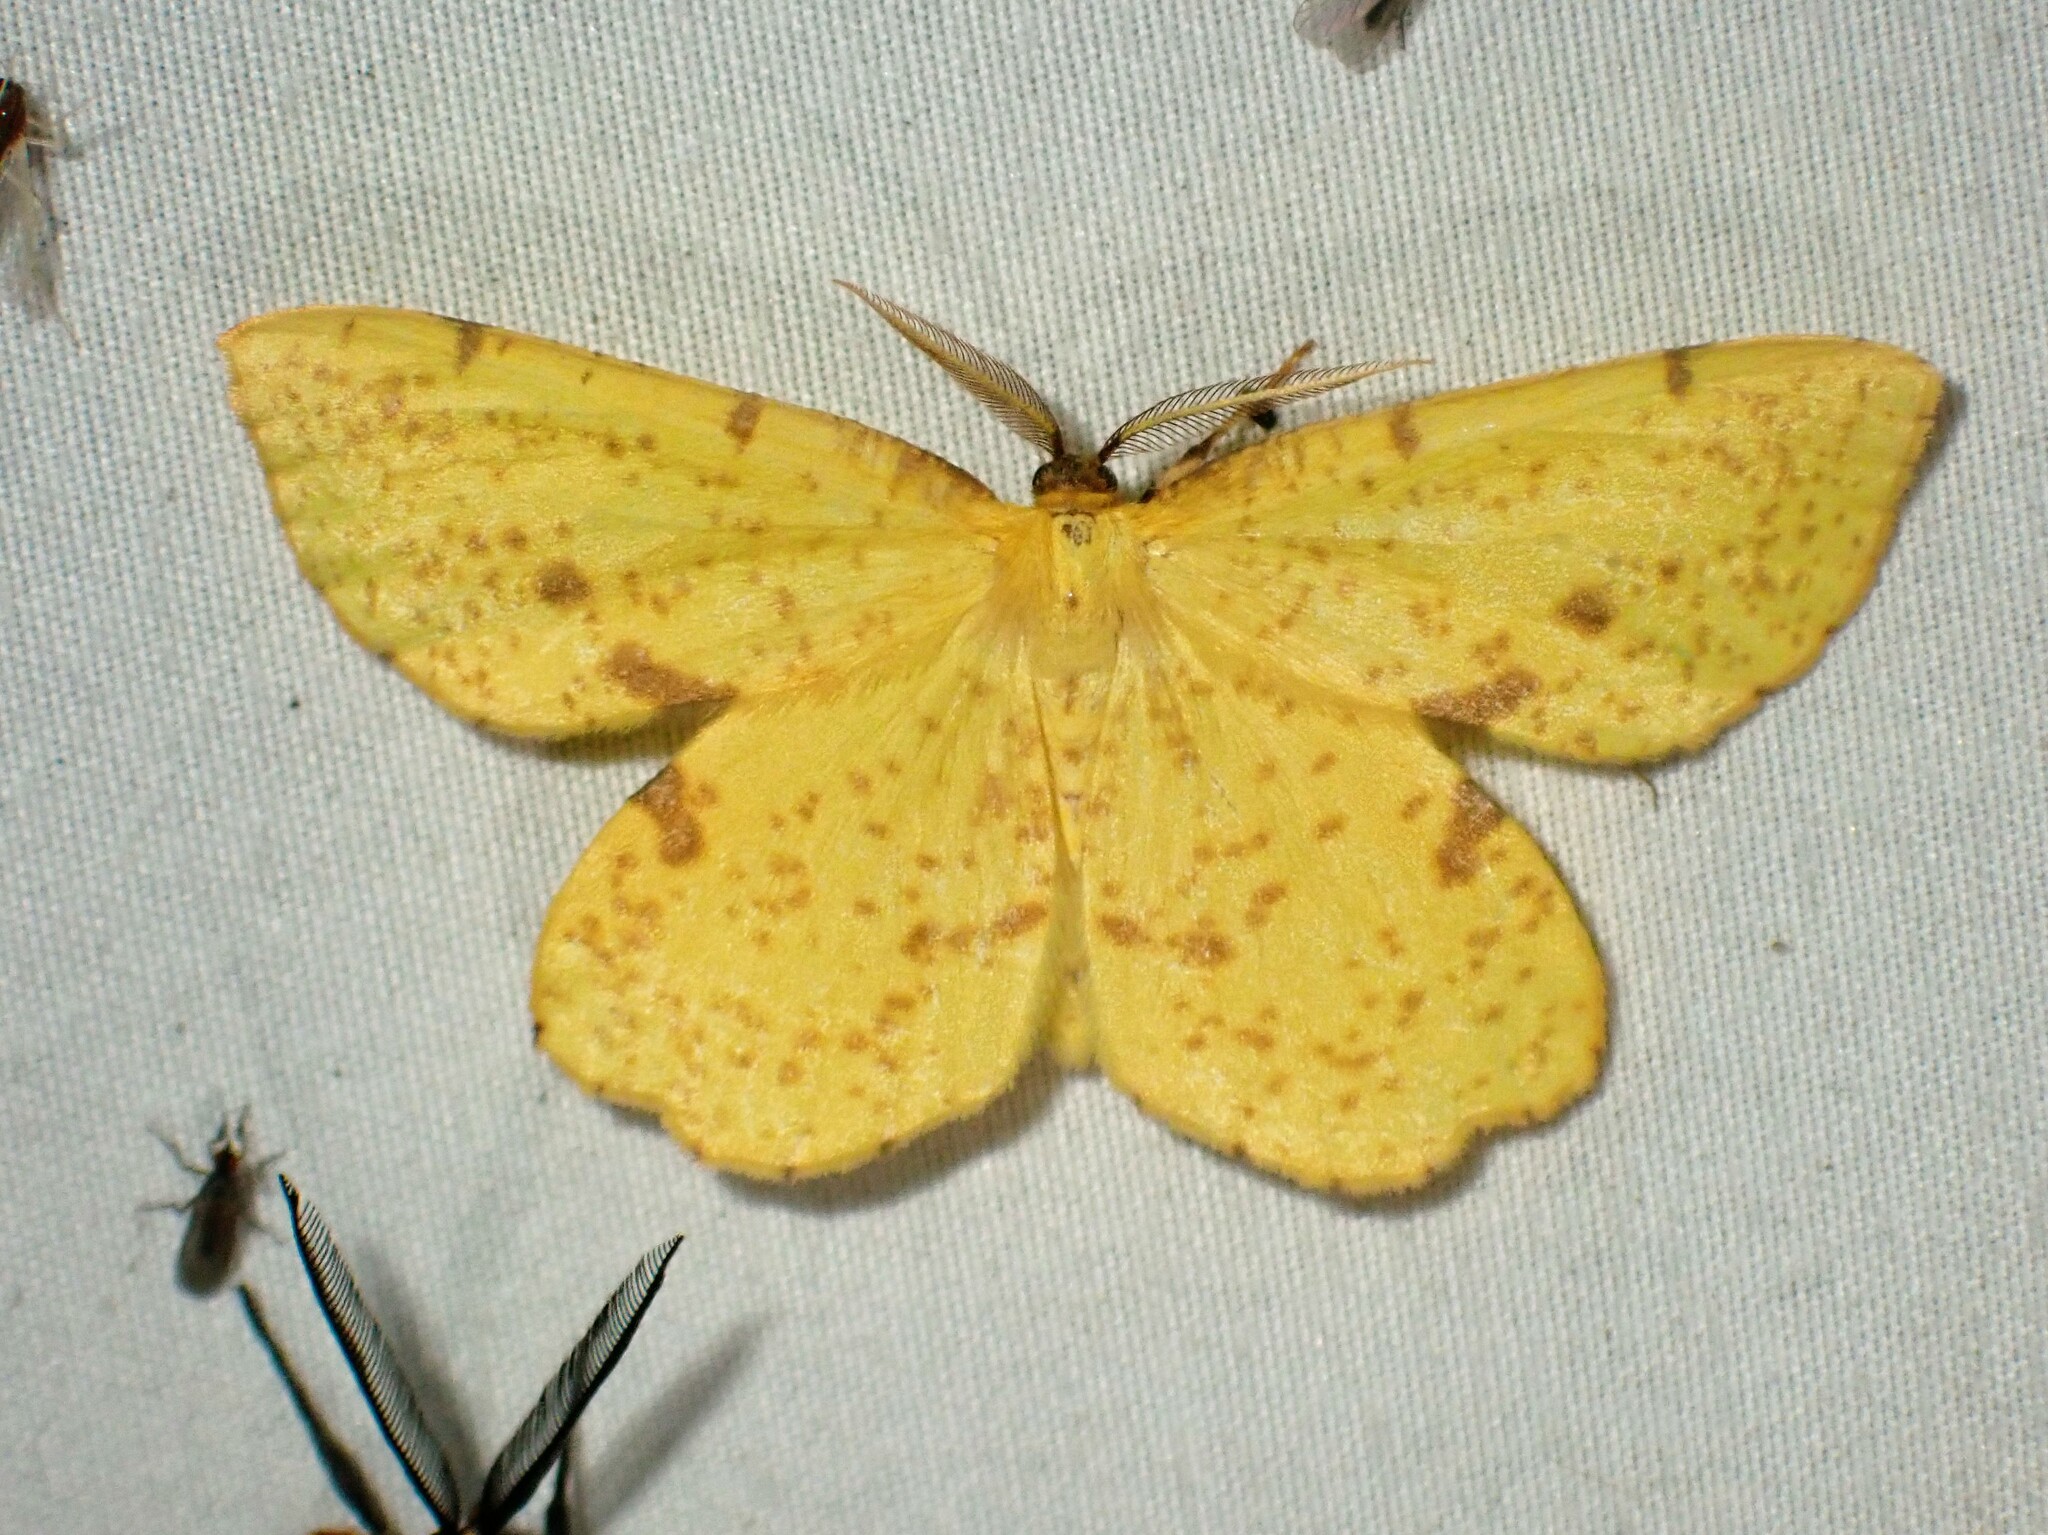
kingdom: Animalia
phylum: Arthropoda
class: Insecta
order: Lepidoptera
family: Geometridae
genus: Xanthotype
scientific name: Xanthotype
